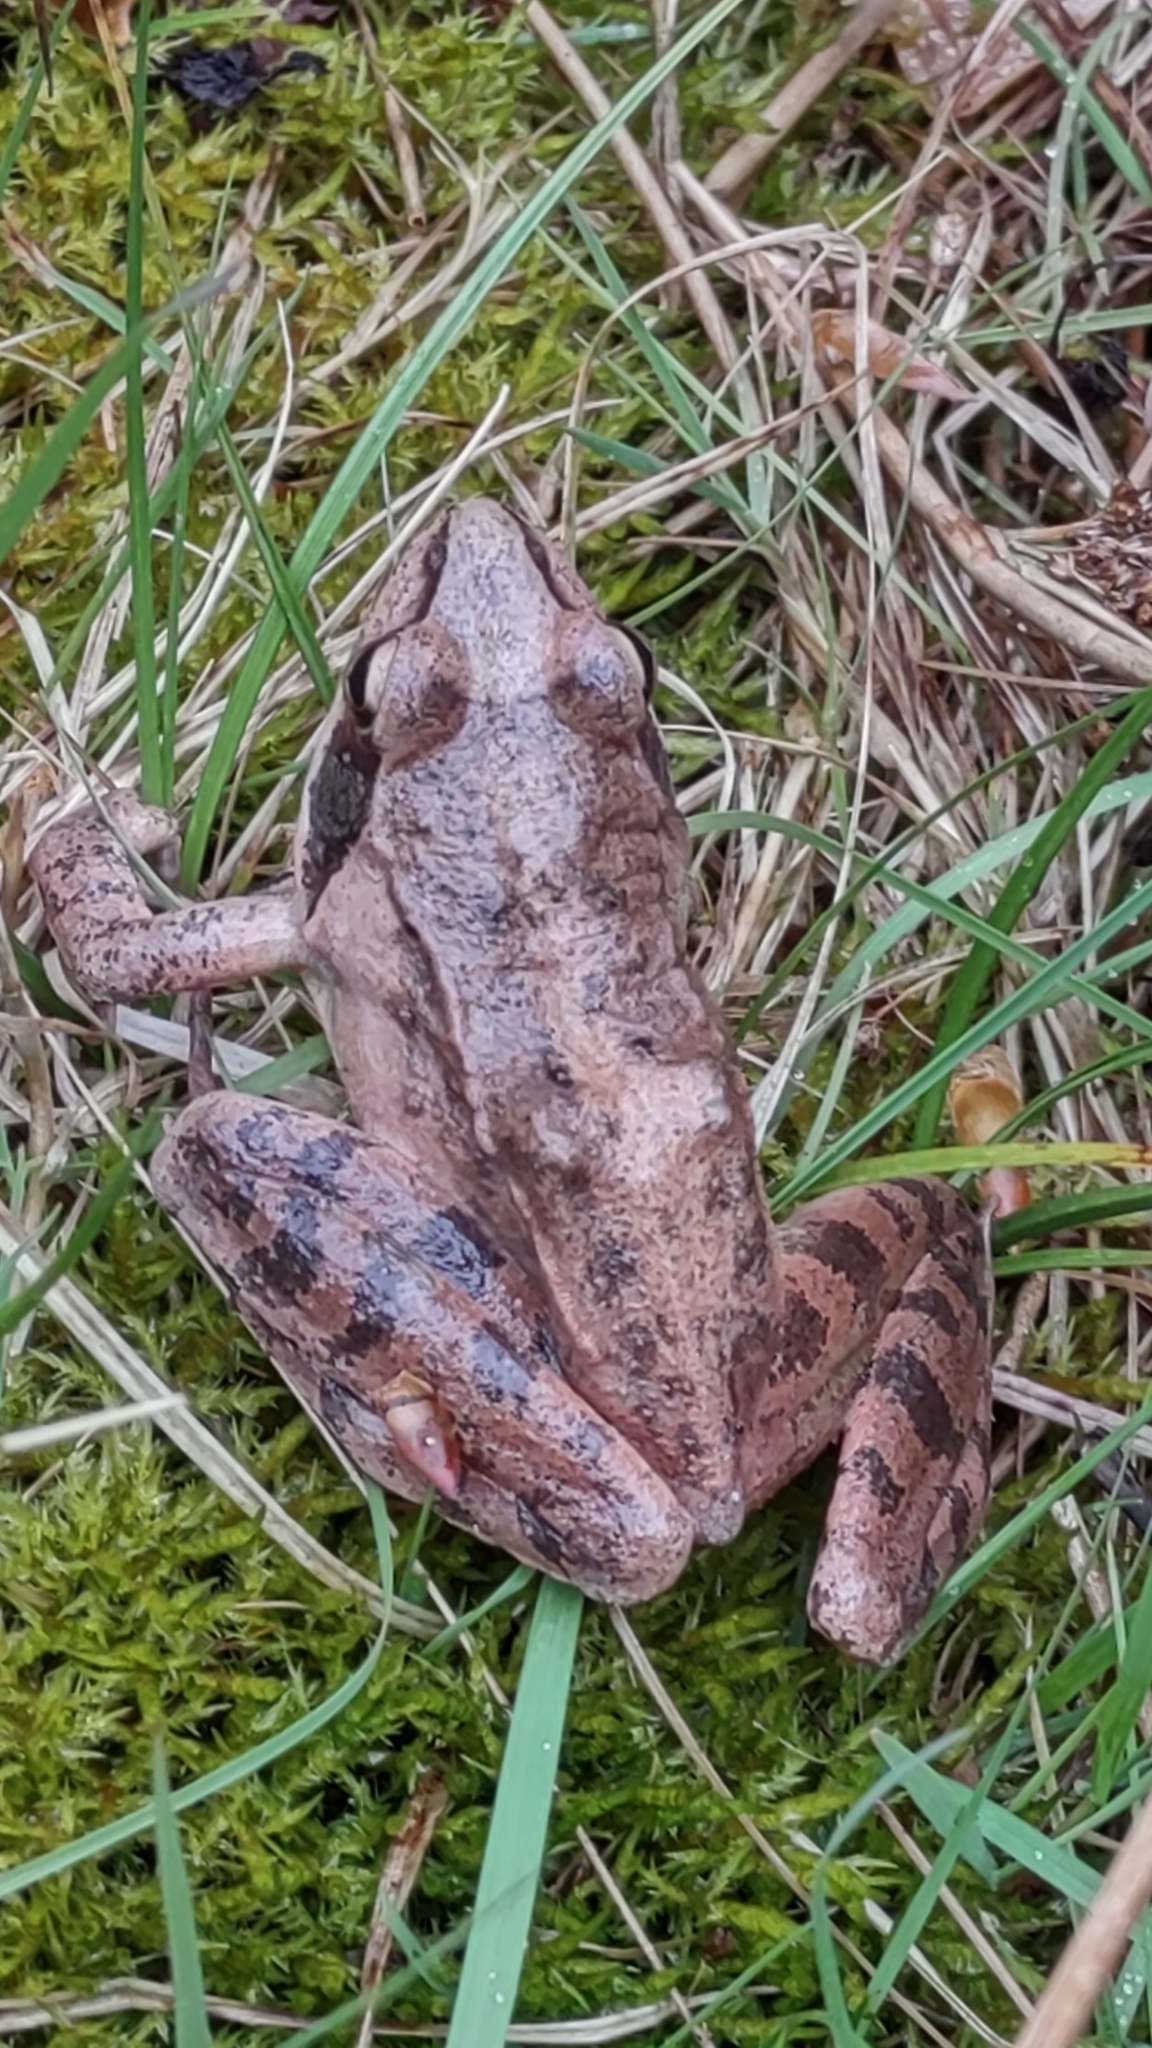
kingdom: Animalia
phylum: Chordata
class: Amphibia
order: Anura
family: Ranidae
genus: Rana
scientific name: Rana dalmatina
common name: Agile frog
